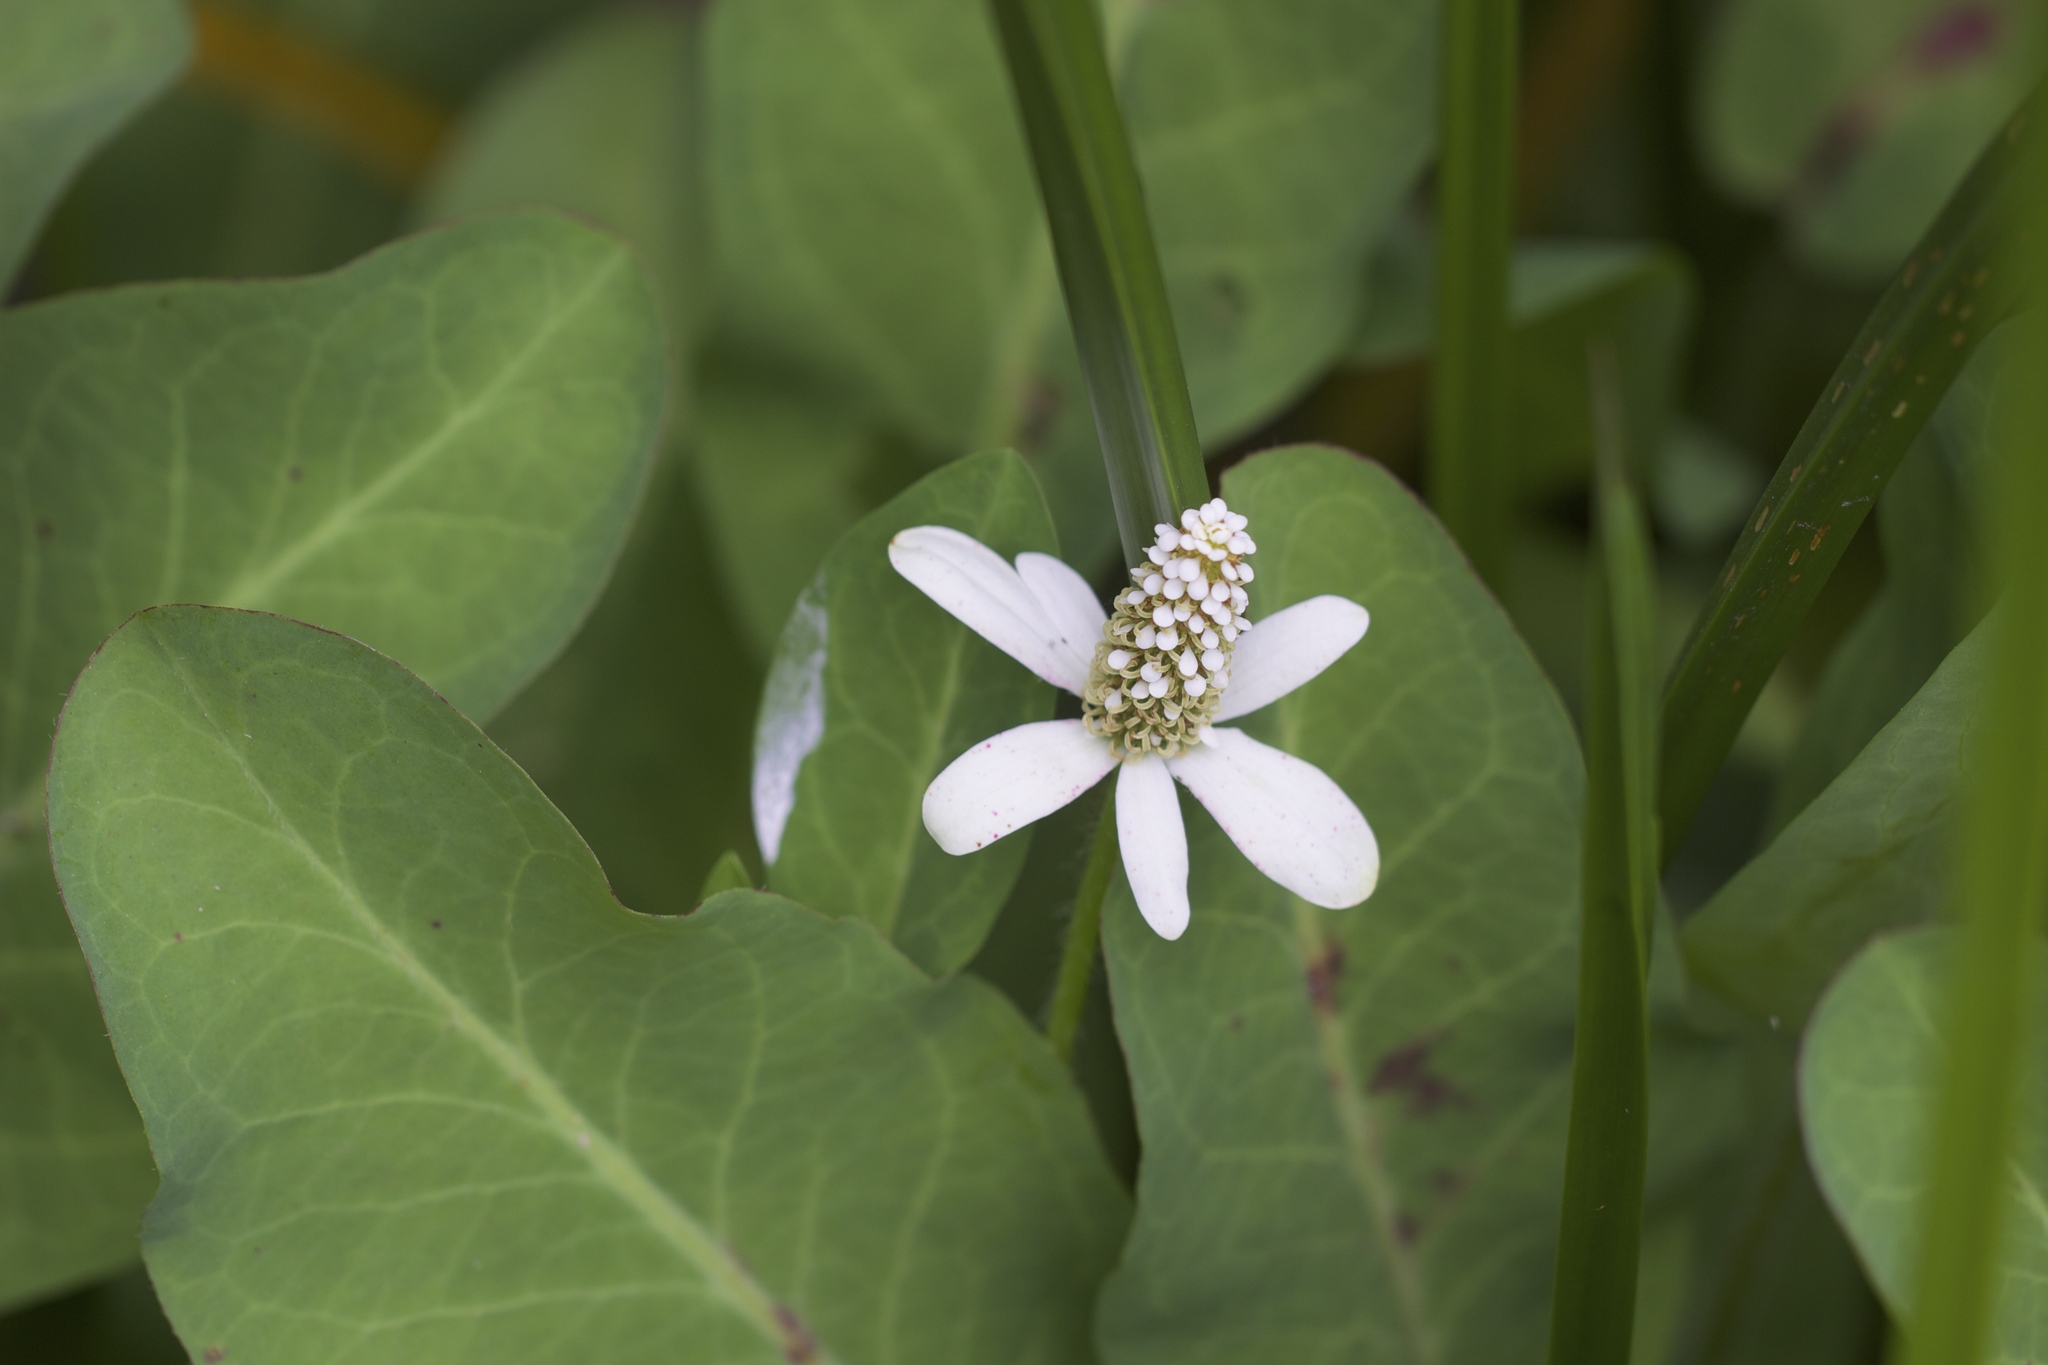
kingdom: Plantae
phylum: Tracheophyta
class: Magnoliopsida
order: Piperales
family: Saururaceae
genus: Anemopsis
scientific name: Anemopsis californica
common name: Apache-beads
